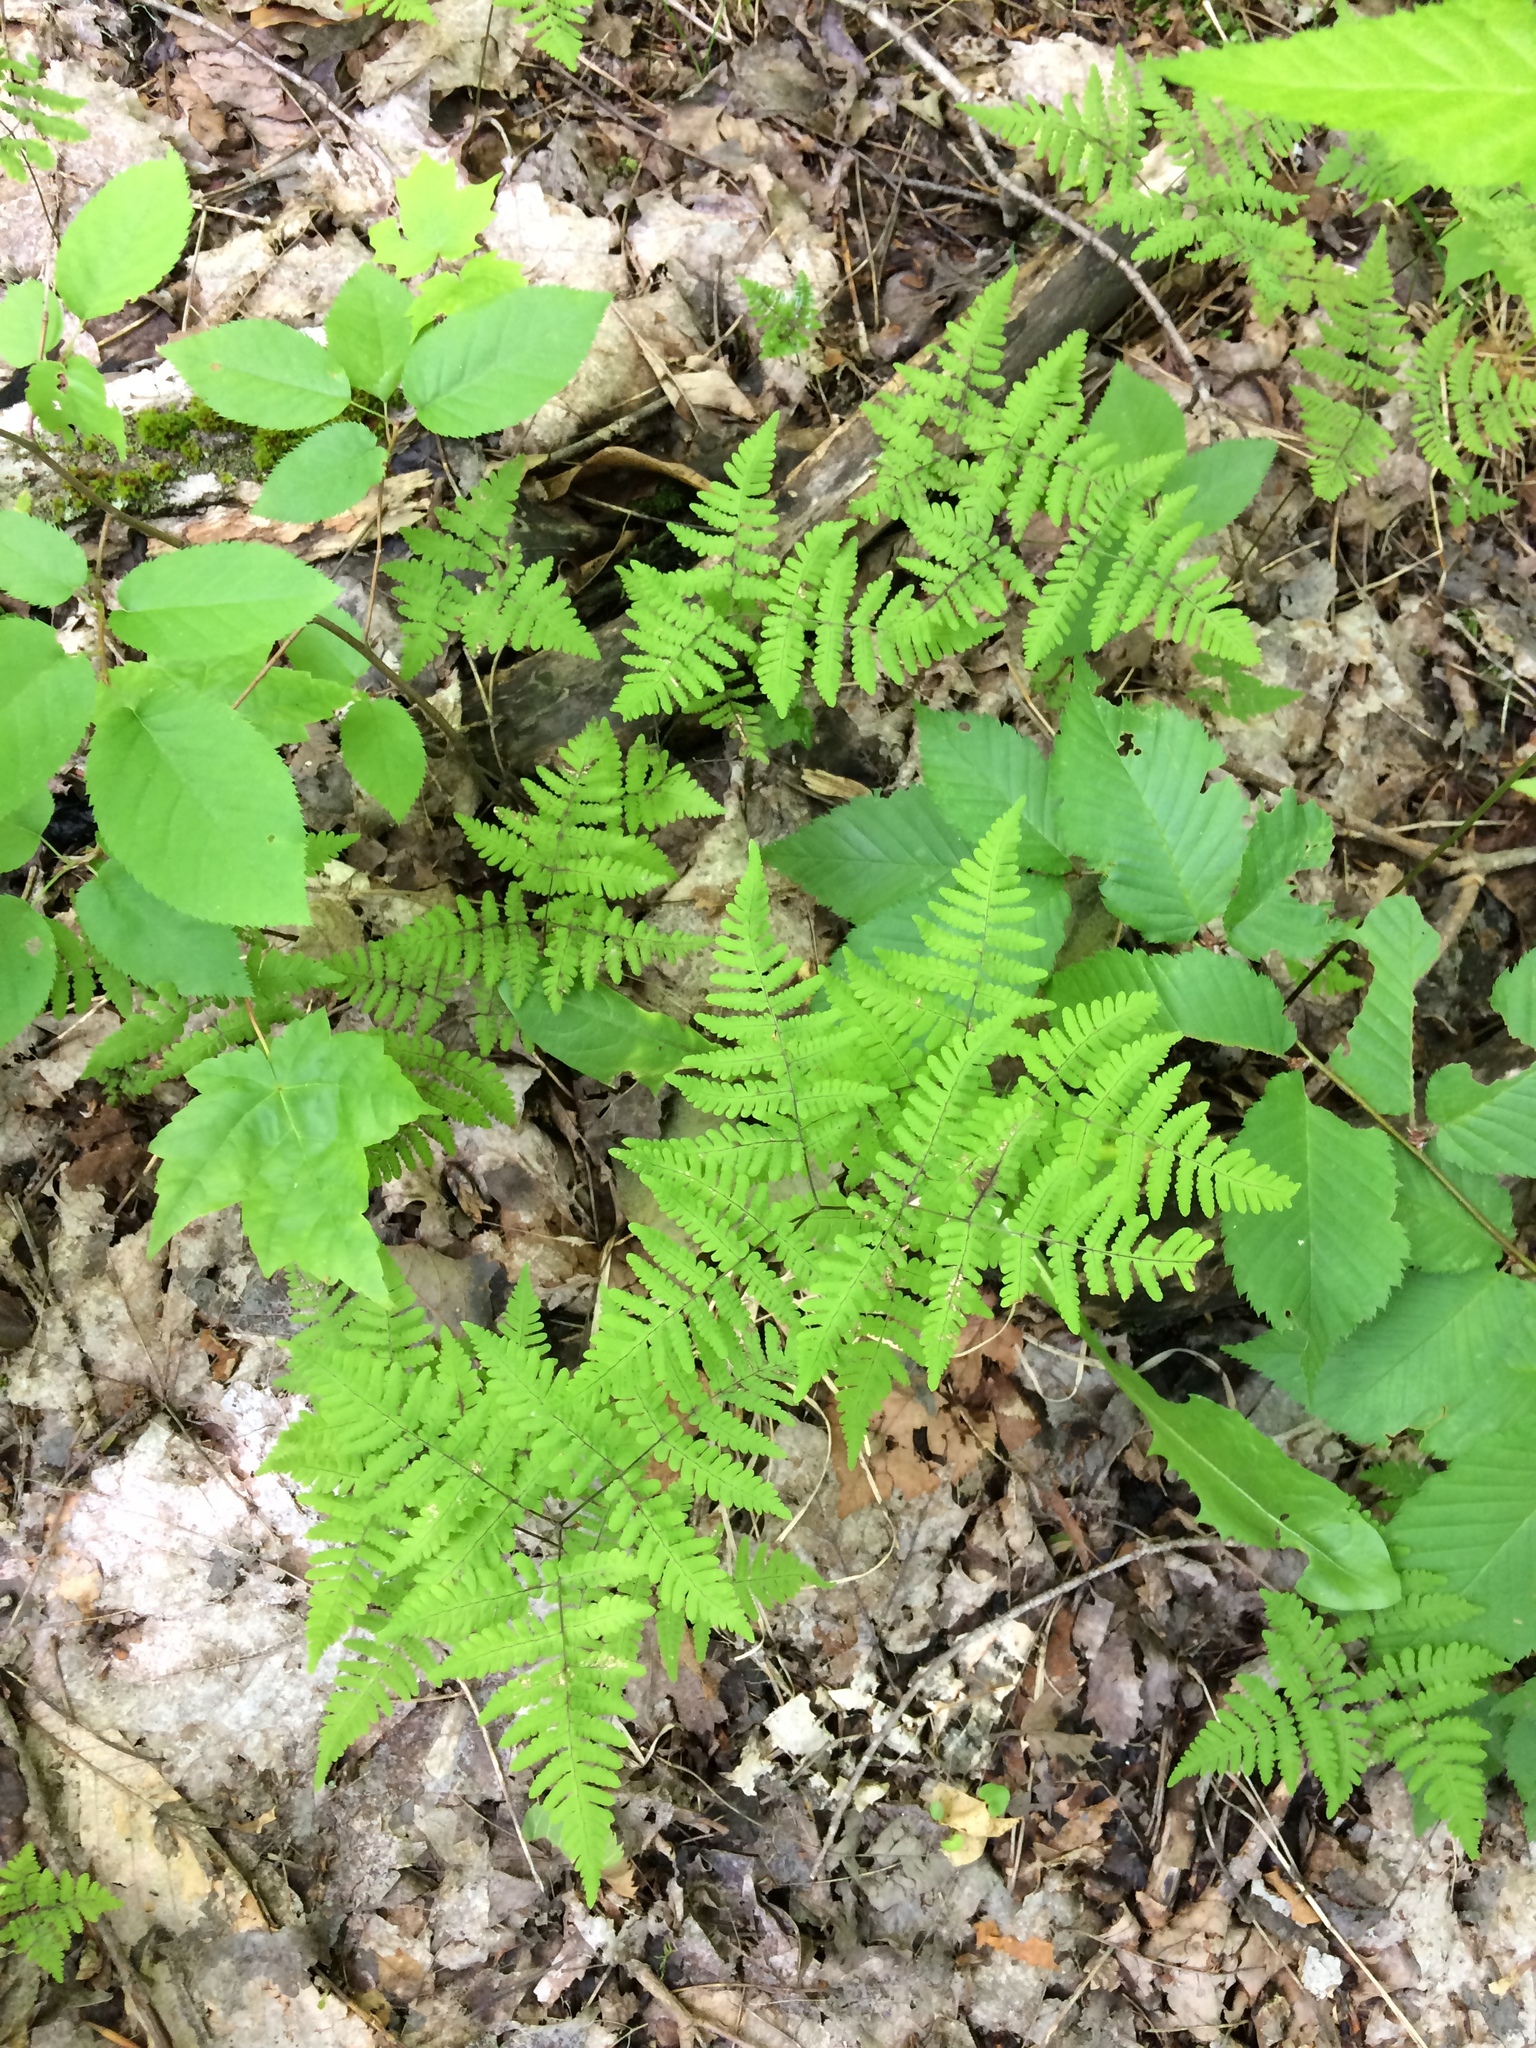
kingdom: Plantae
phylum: Tracheophyta
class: Polypodiopsida
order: Polypodiales
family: Cystopteridaceae
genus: Gymnocarpium
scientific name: Gymnocarpium dryopteris
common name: Oak fern
